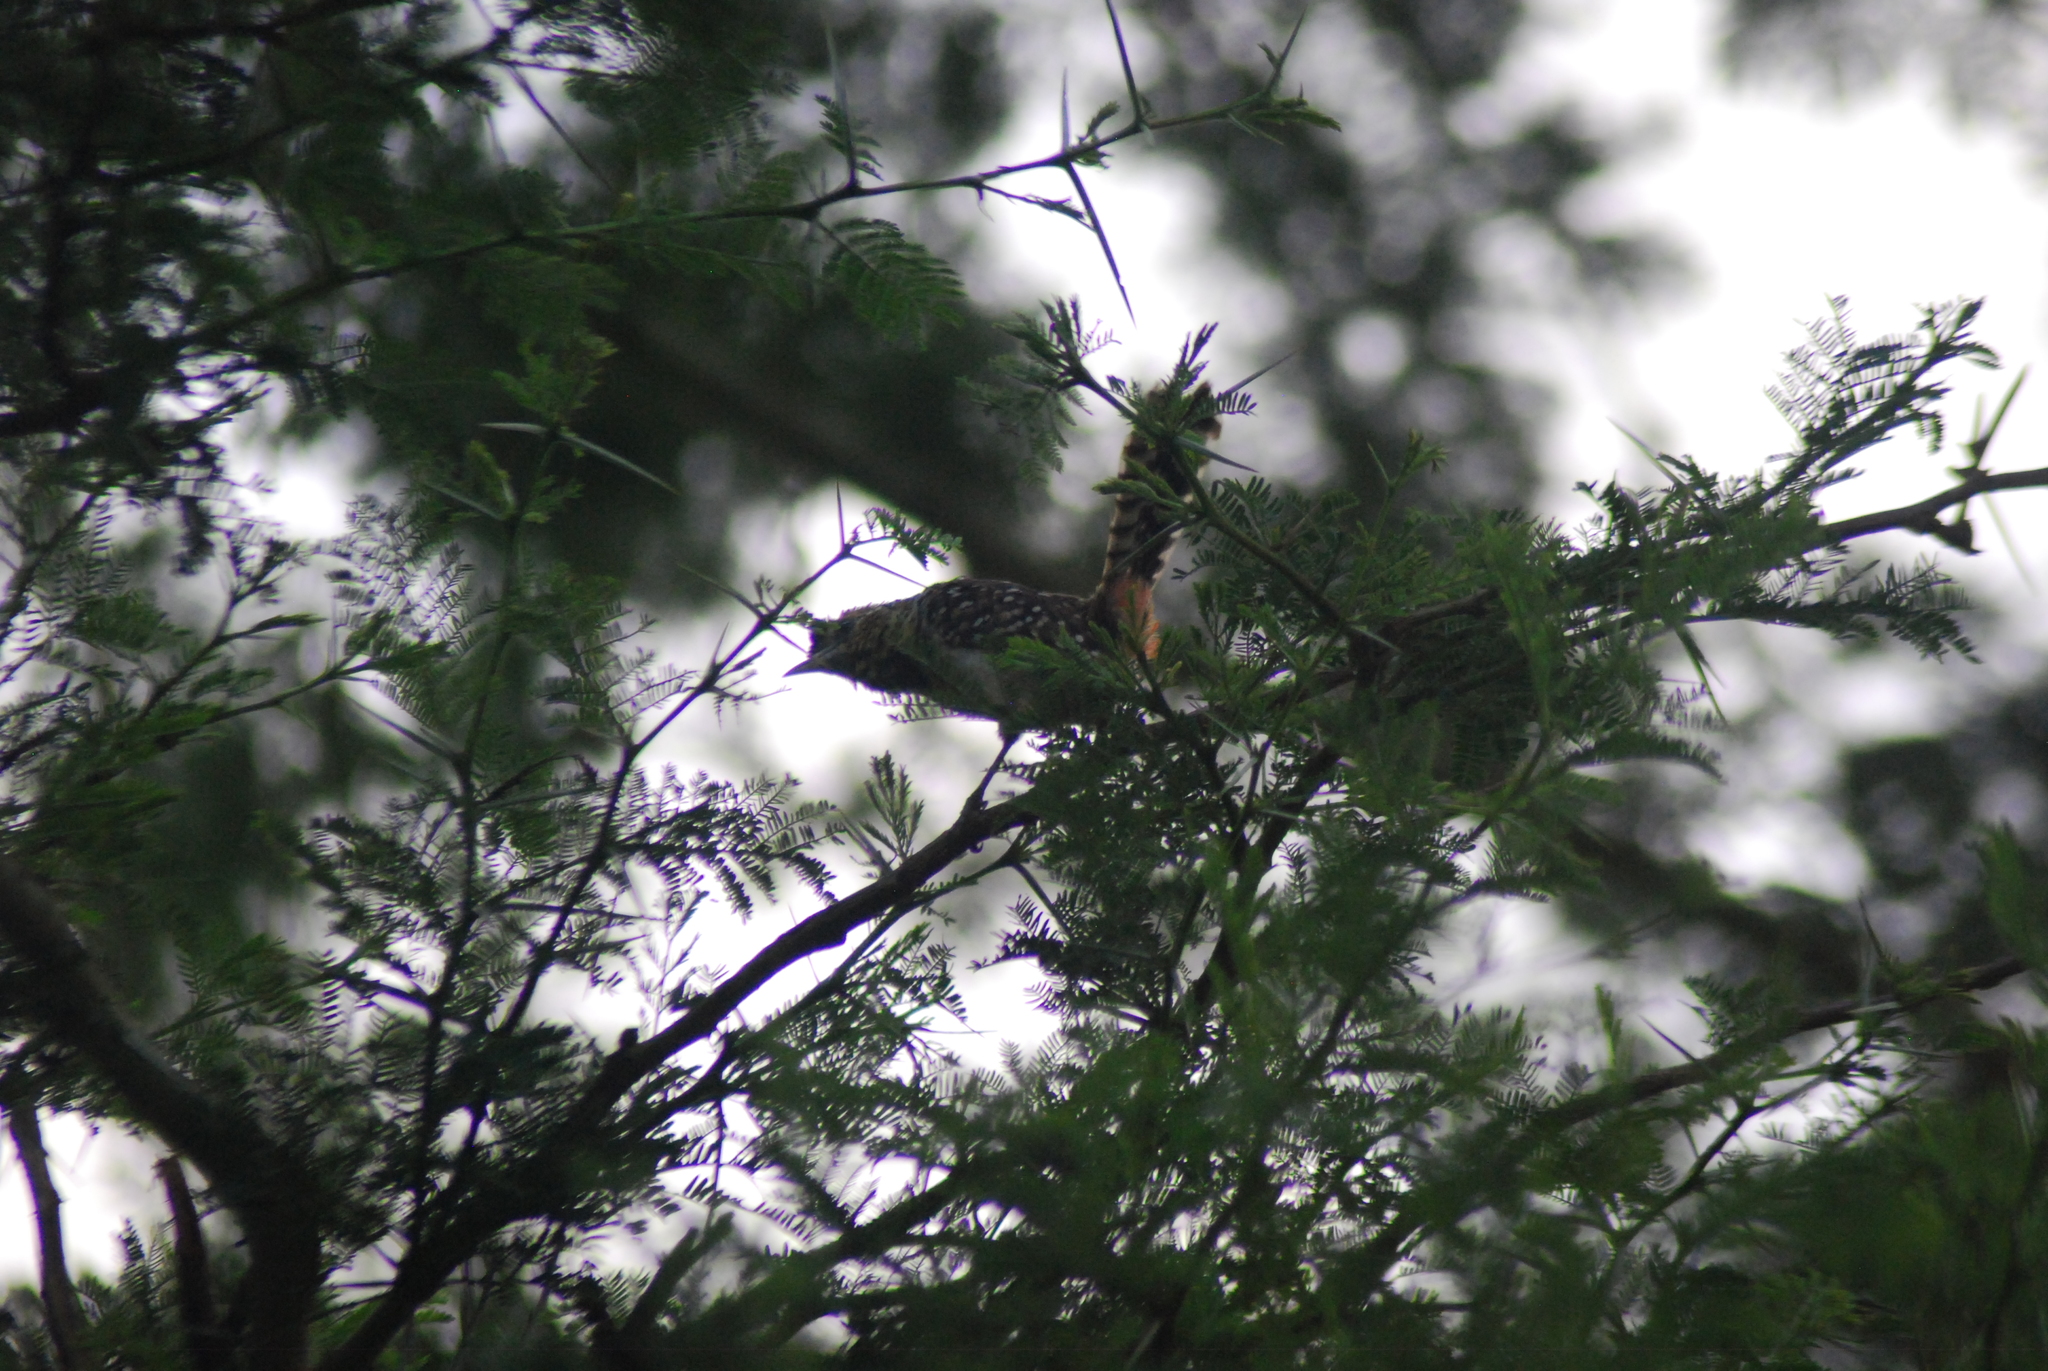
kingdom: Animalia
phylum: Chordata
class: Aves
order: Piciformes
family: Lybiidae
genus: Trachyphonus
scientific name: Trachyphonus darnaudii
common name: D'arnaud's barbet
